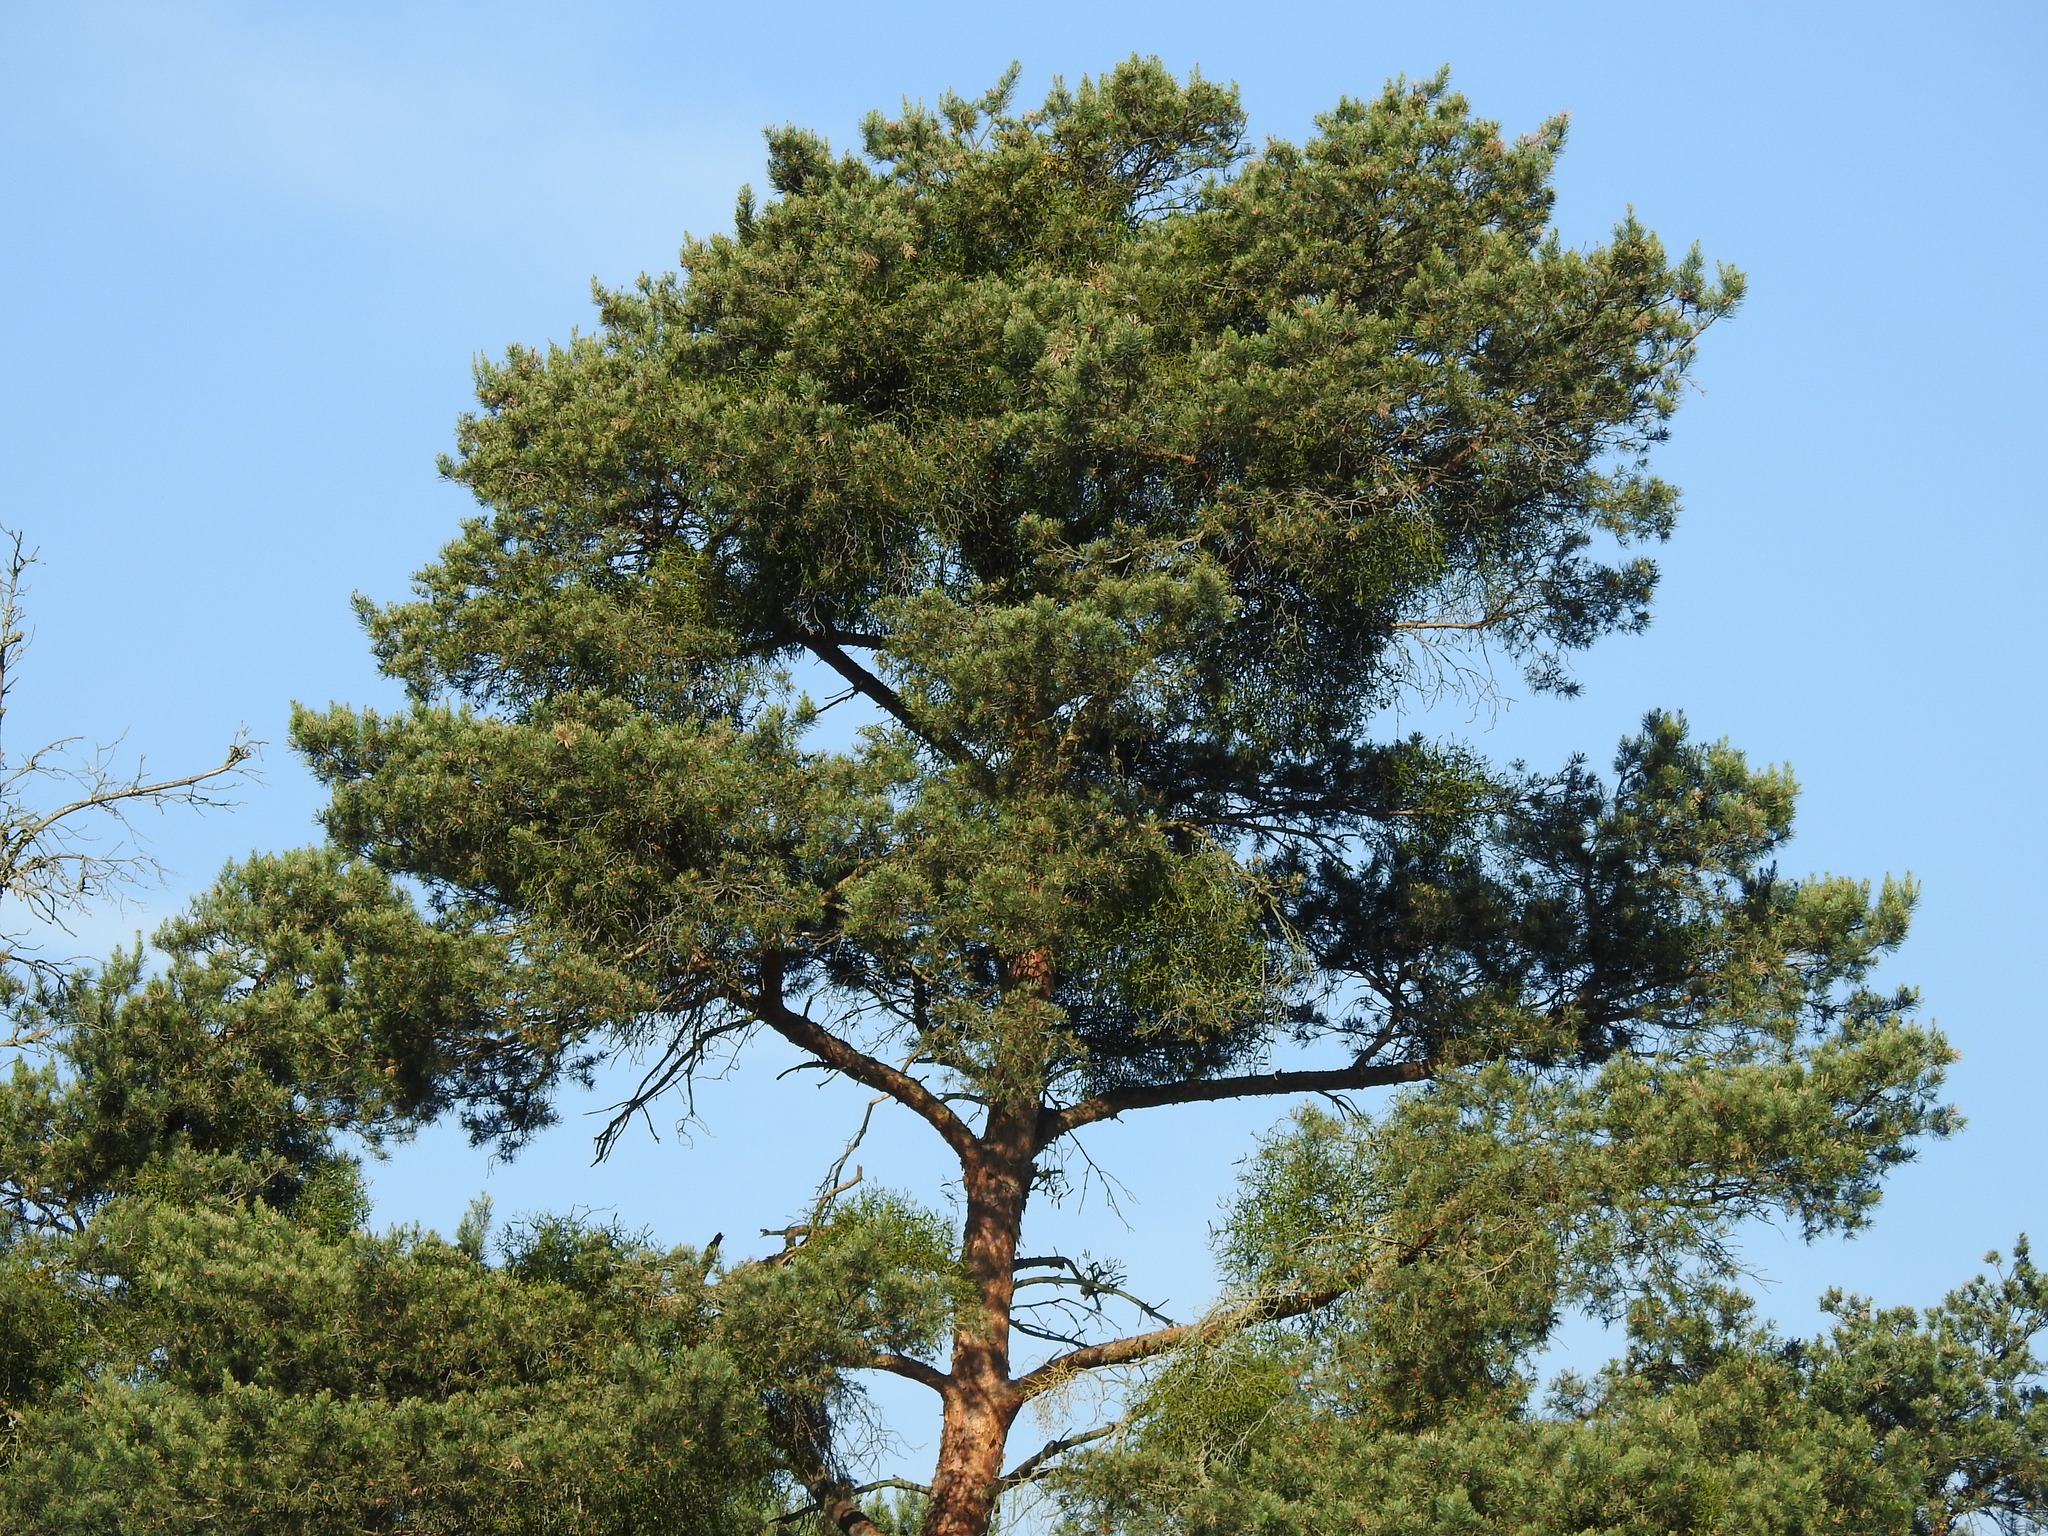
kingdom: Plantae
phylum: Tracheophyta
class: Pinopsida
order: Pinales
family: Pinaceae
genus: Pinus
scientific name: Pinus sylvestris
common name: Scots pine
